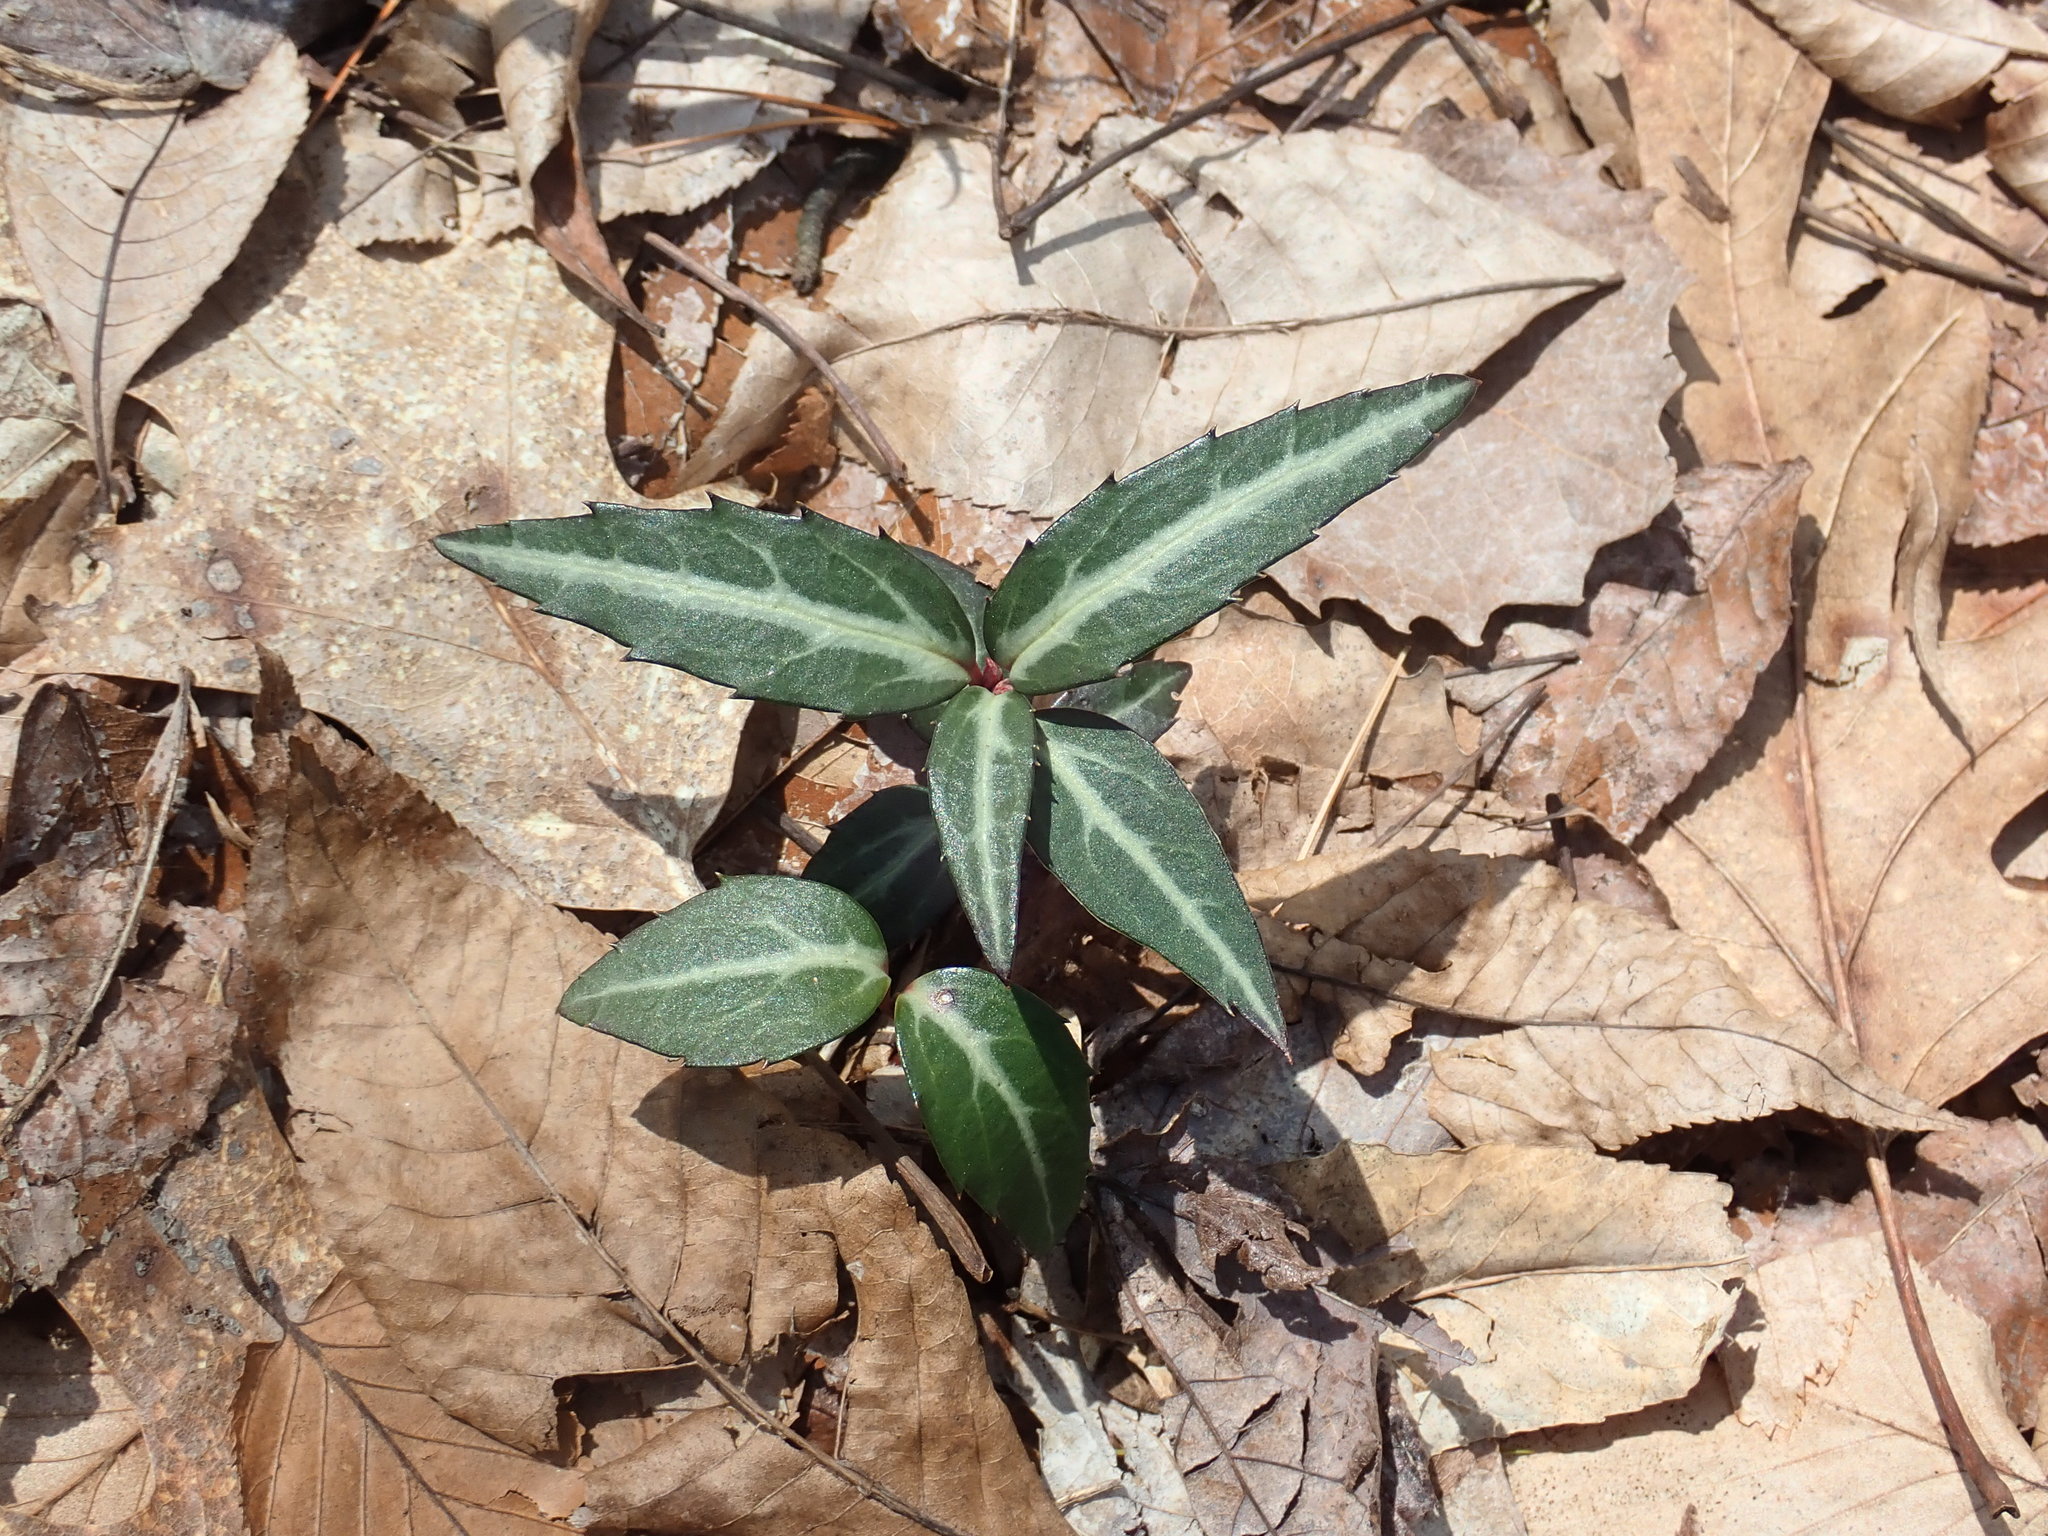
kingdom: Plantae
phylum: Tracheophyta
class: Magnoliopsida
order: Ericales
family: Ericaceae
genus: Chimaphila
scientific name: Chimaphila maculata
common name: Spotted pipsissewa
